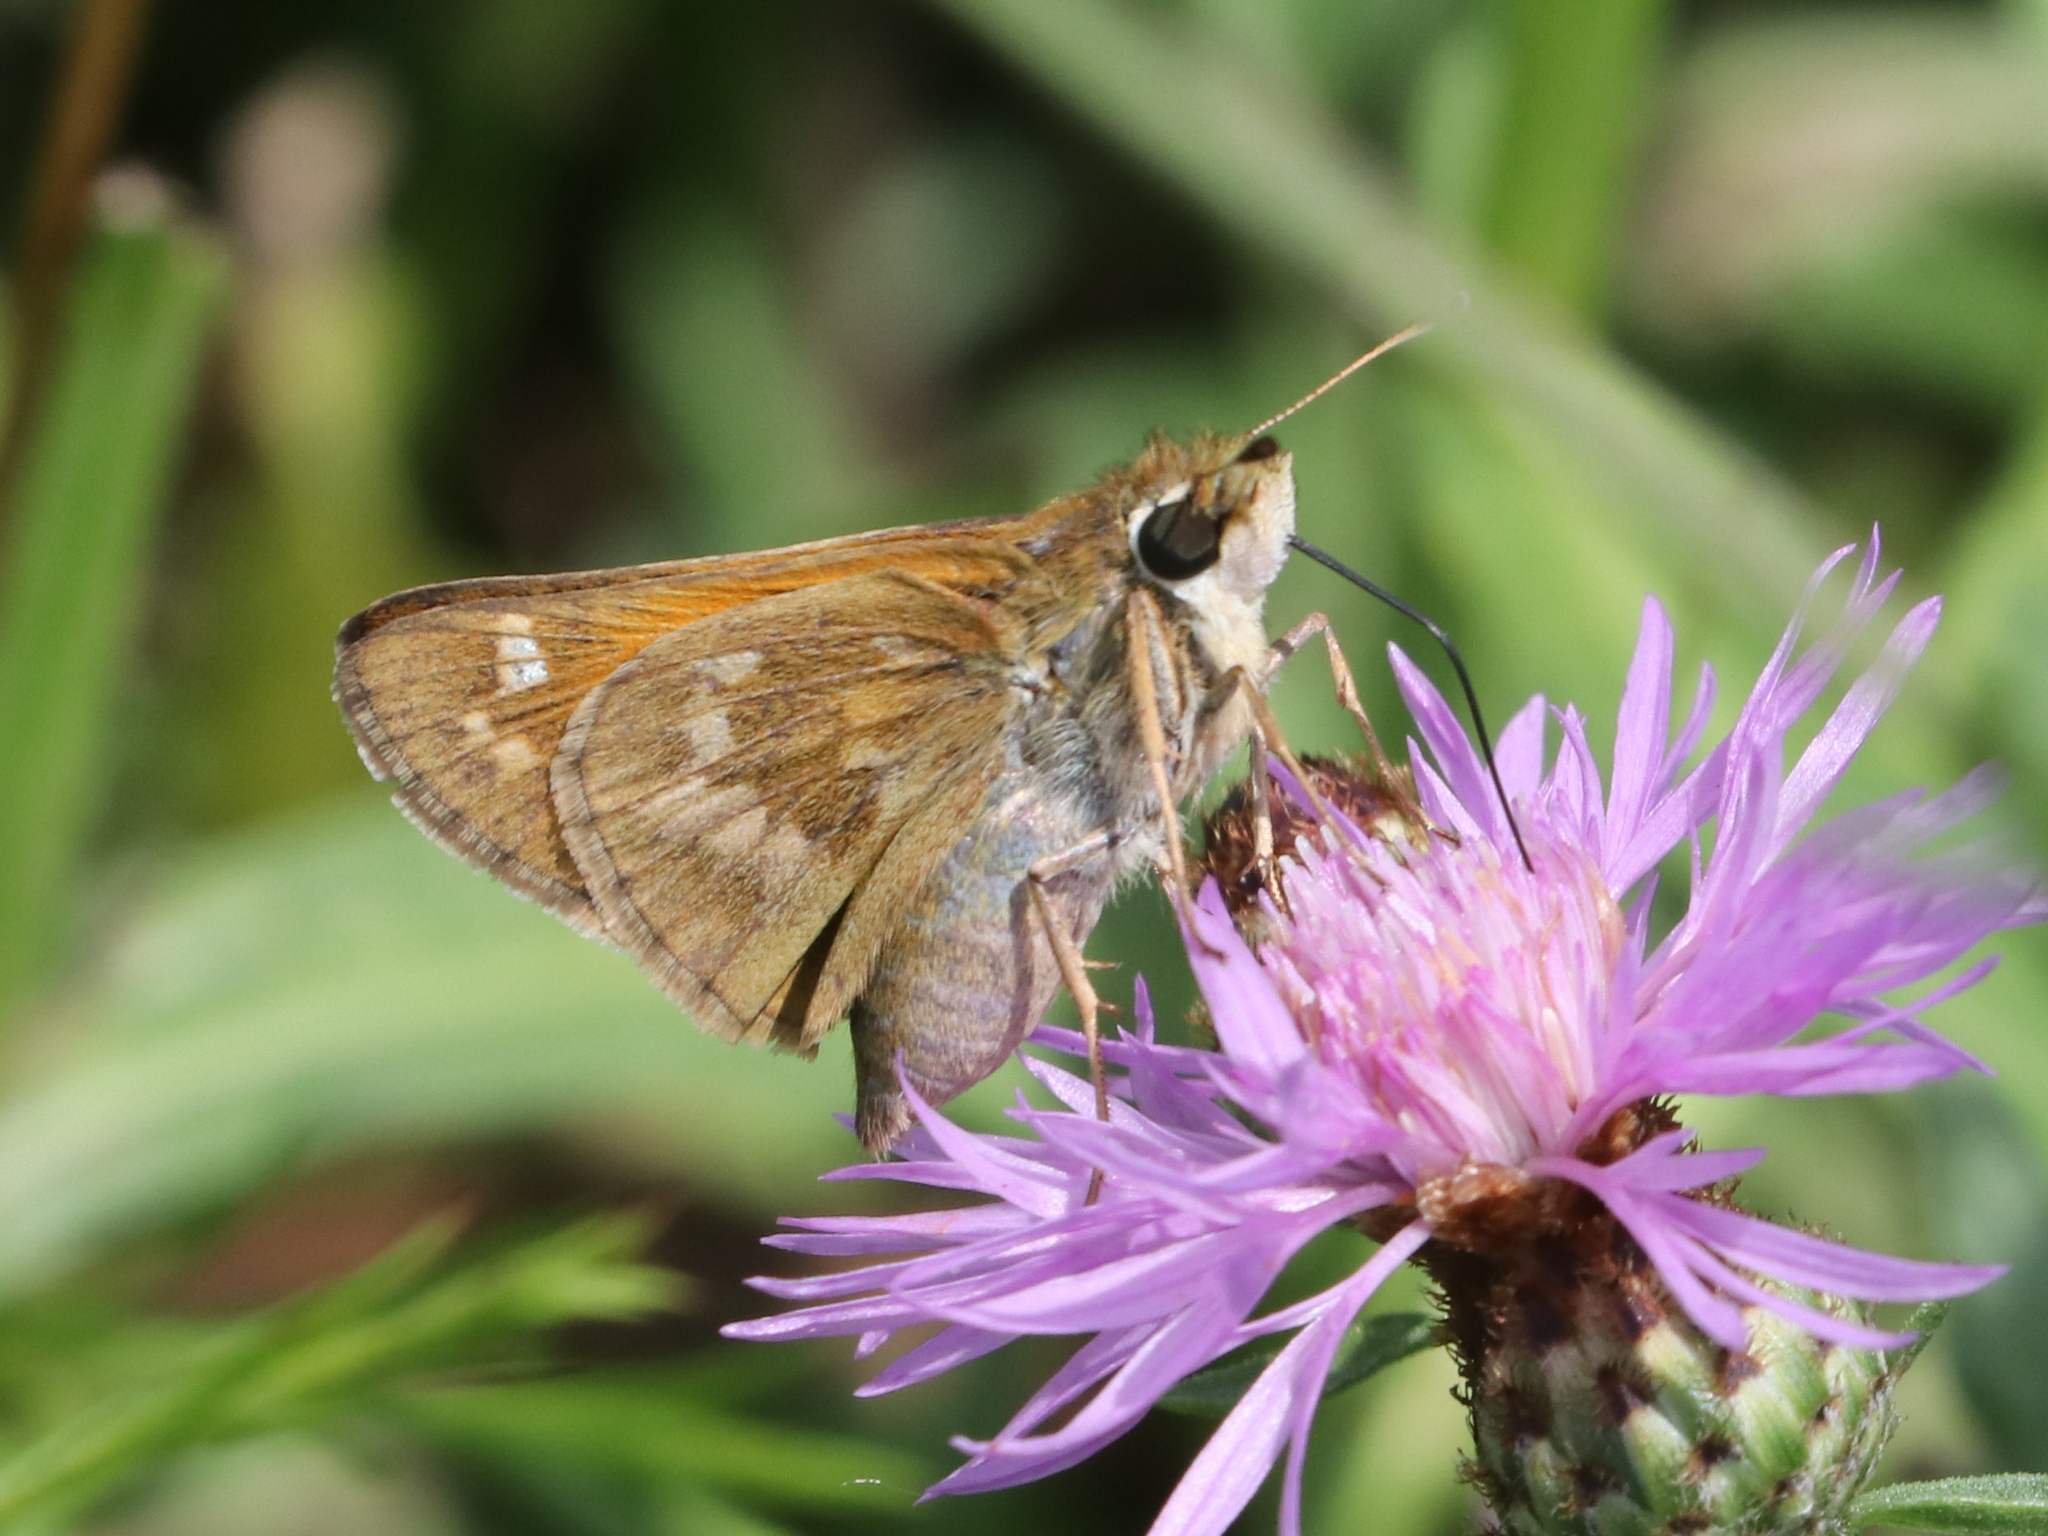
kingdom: Animalia
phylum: Arthropoda
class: Insecta
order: Lepidoptera
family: Hesperiidae
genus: Atalopedes
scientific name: Atalopedes
